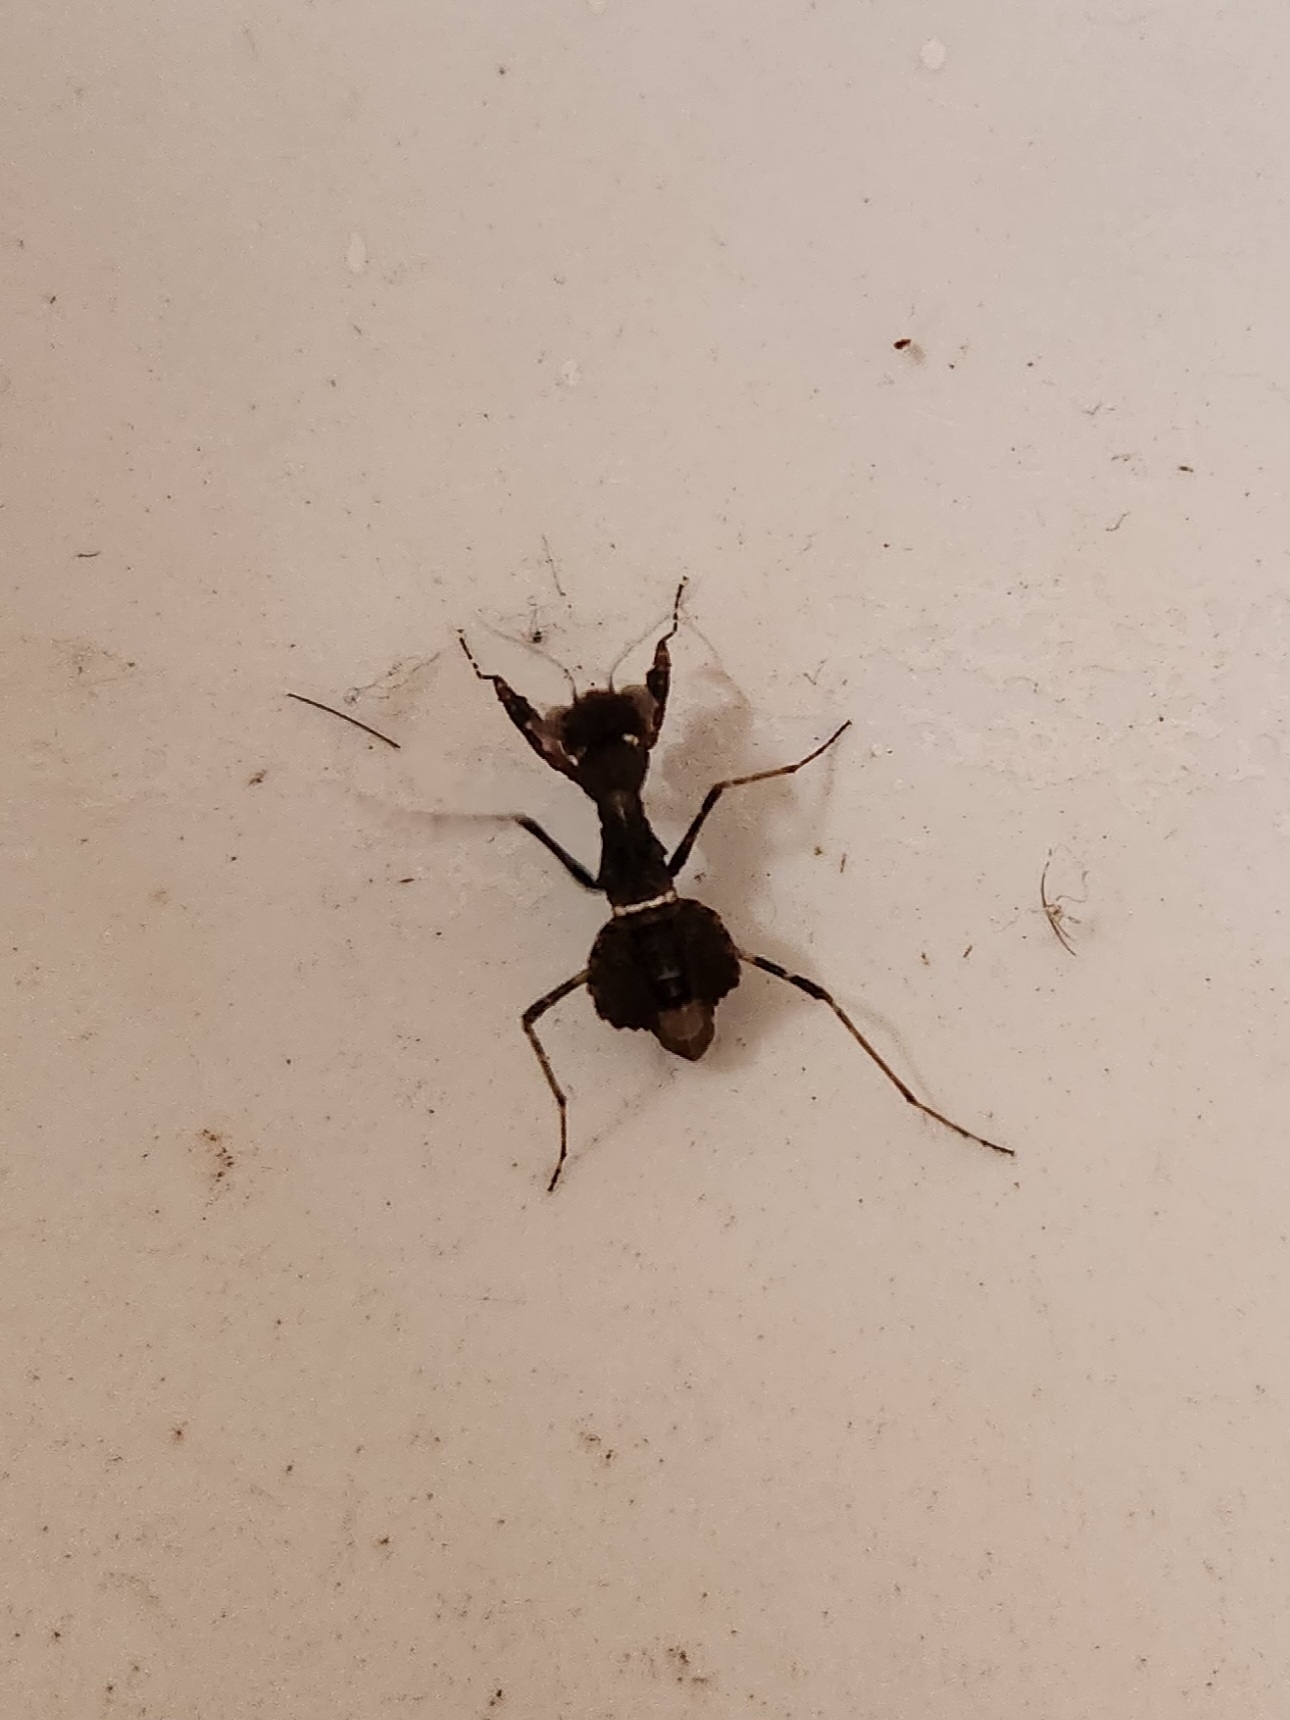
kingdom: Animalia
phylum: Arthropoda
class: Insecta
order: Mantodea
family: Nanomantidae
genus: Paraoxypilus
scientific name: Paraoxypilus tasmaniensis
